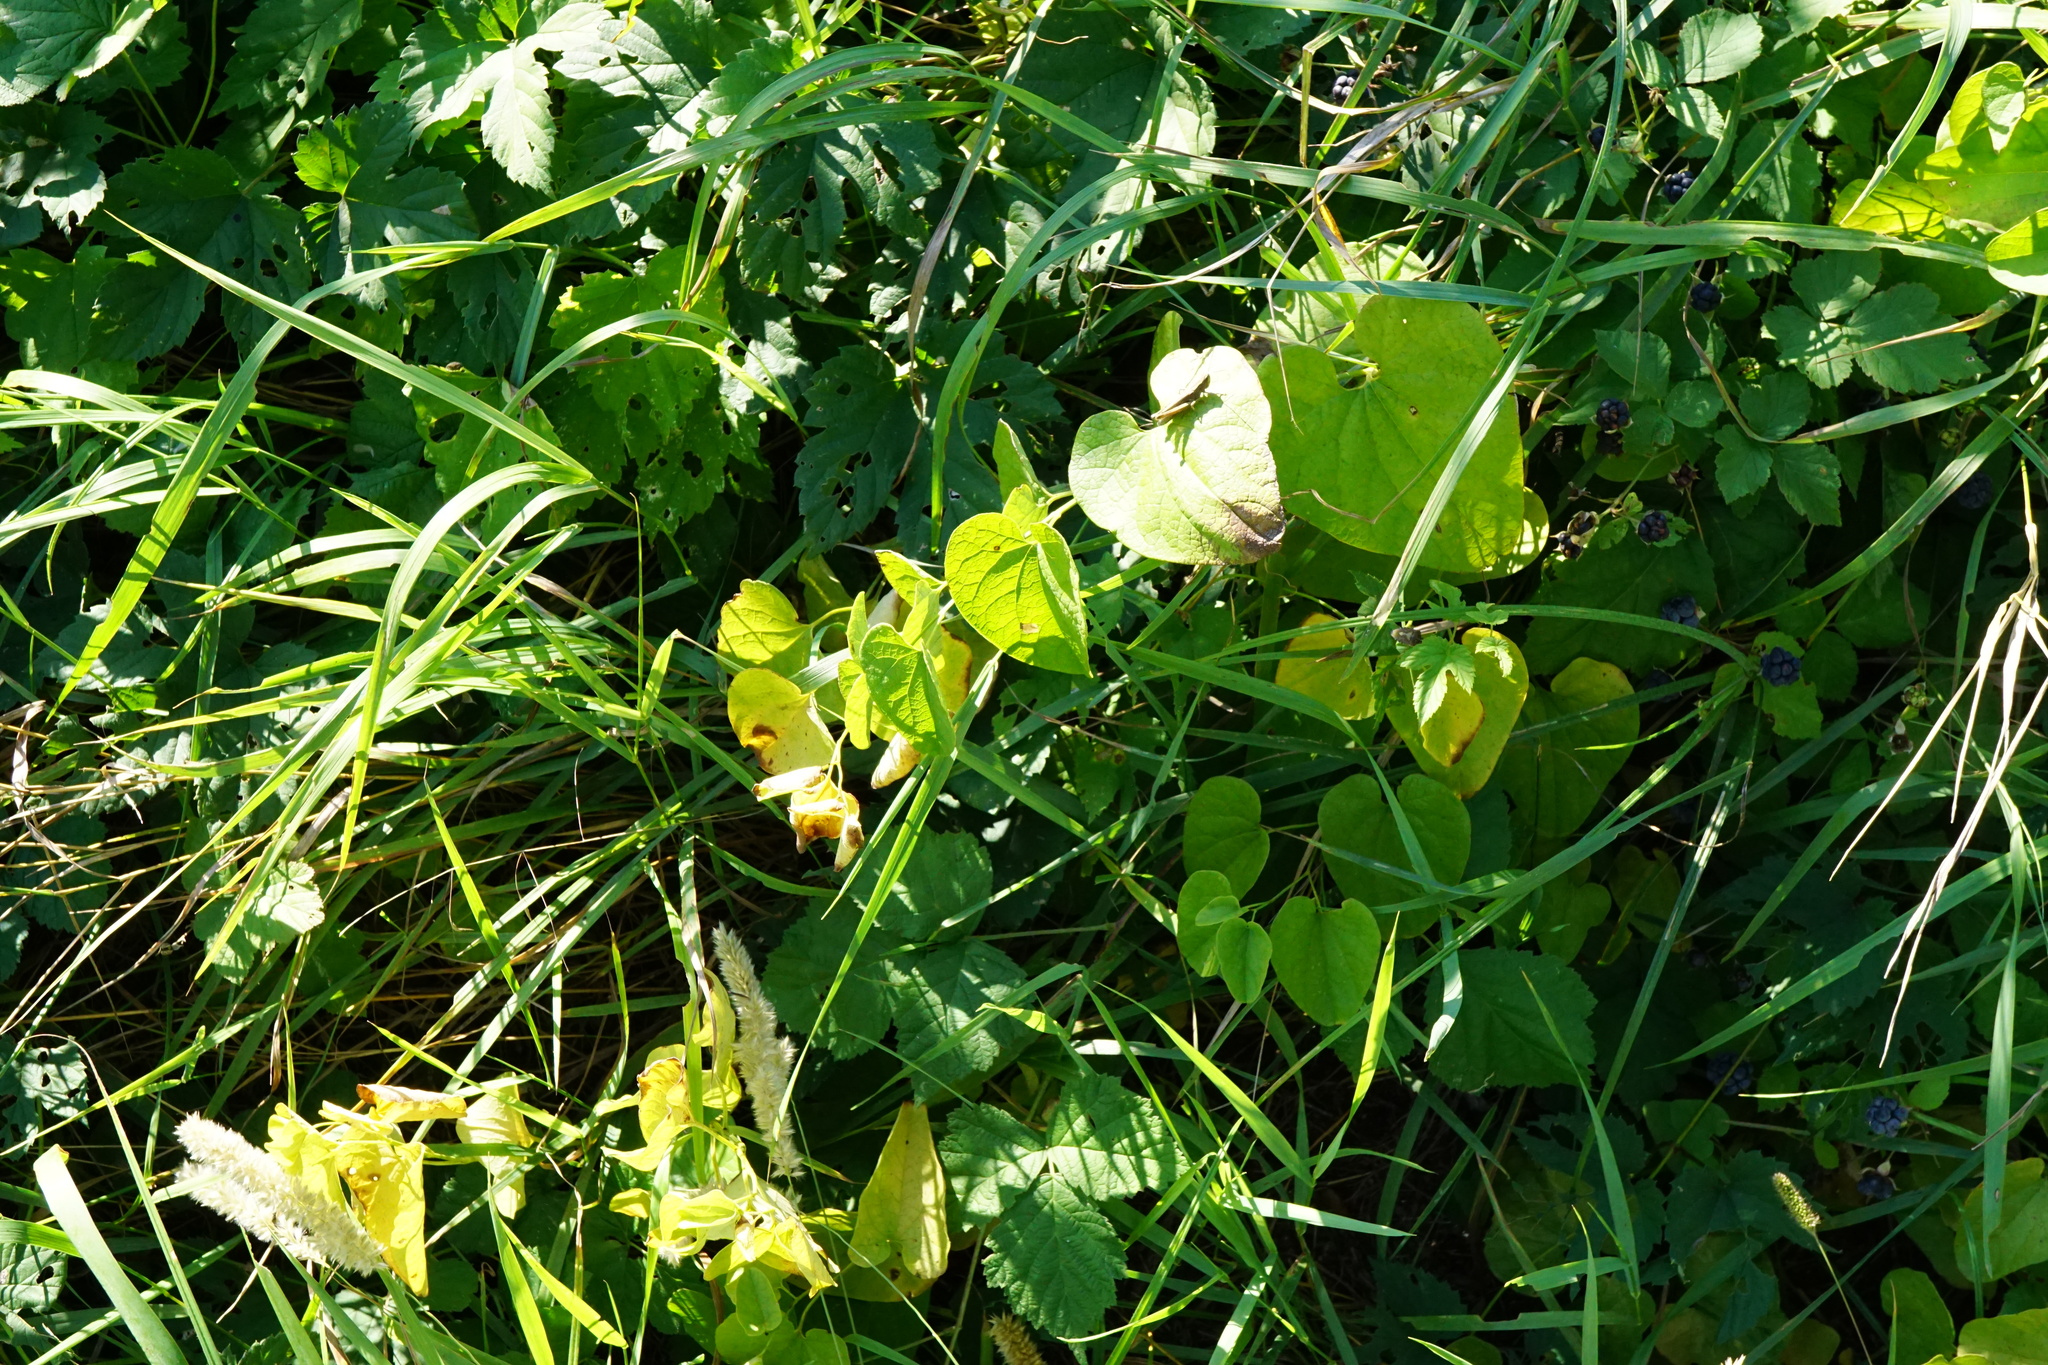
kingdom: Plantae
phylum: Tracheophyta
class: Magnoliopsida
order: Piperales
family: Aristolochiaceae
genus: Aristolochia
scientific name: Aristolochia clematitis
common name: Birthwort
